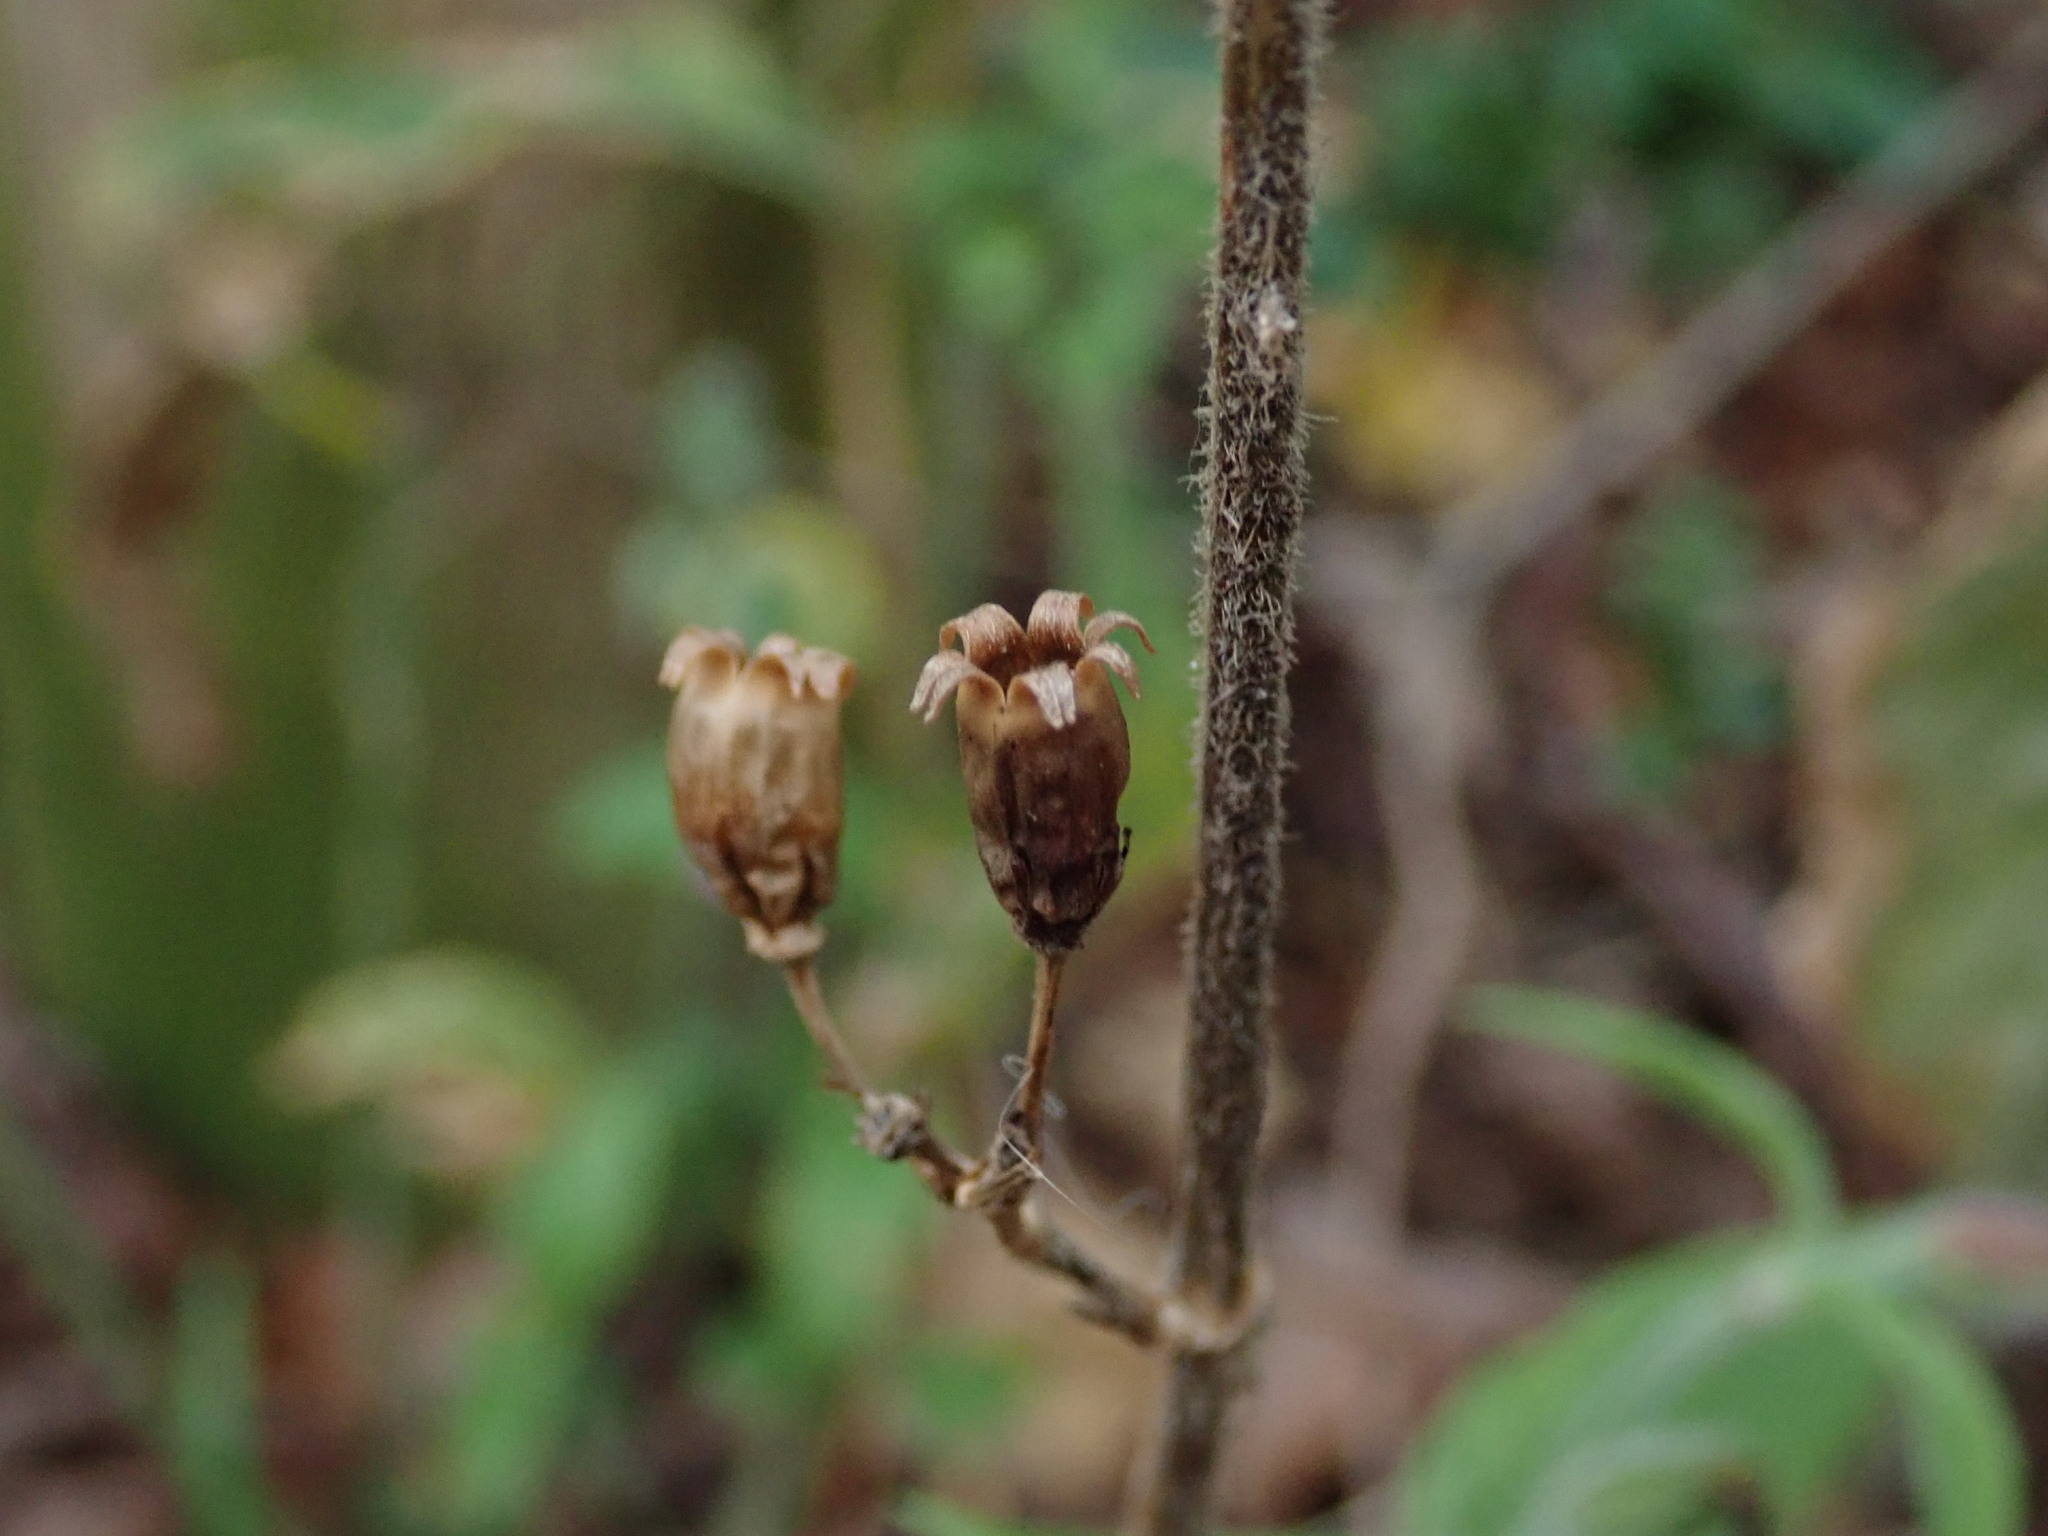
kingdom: Plantae
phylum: Tracheophyta
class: Magnoliopsida
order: Caryophyllales
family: Caryophyllaceae
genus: Silene
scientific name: Silene dioica
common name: Red campion
